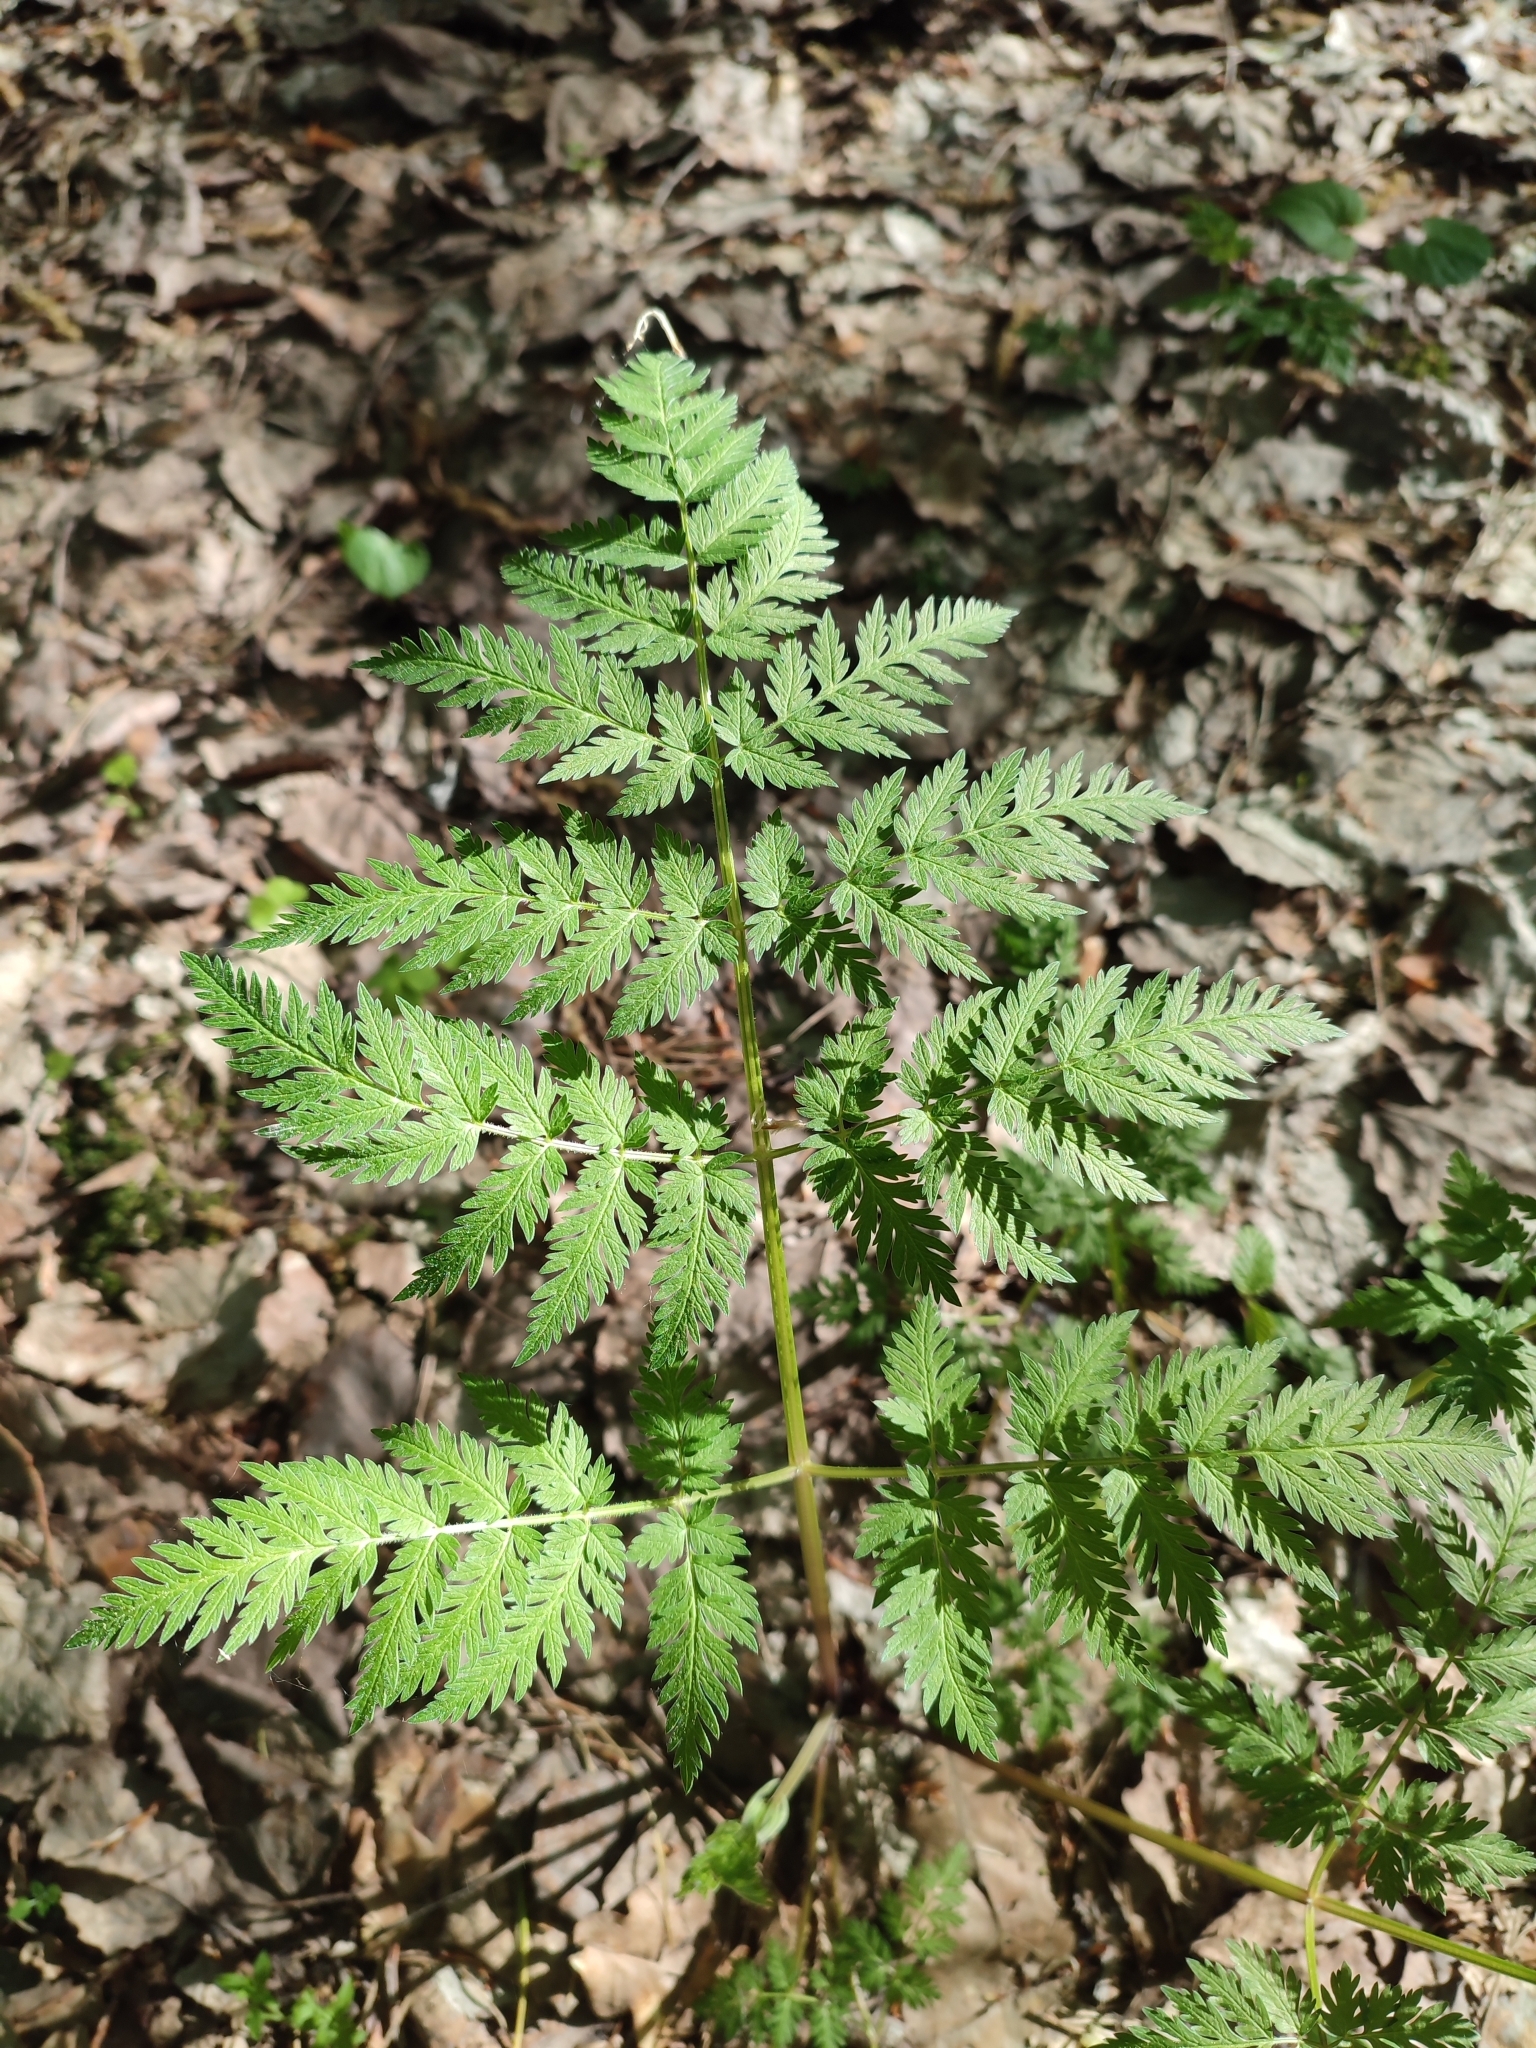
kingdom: Plantae
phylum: Tracheophyta
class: Magnoliopsida
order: Apiales
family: Apiaceae
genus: Anthriscus
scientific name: Anthriscus sylvestris
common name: Cow parsley
